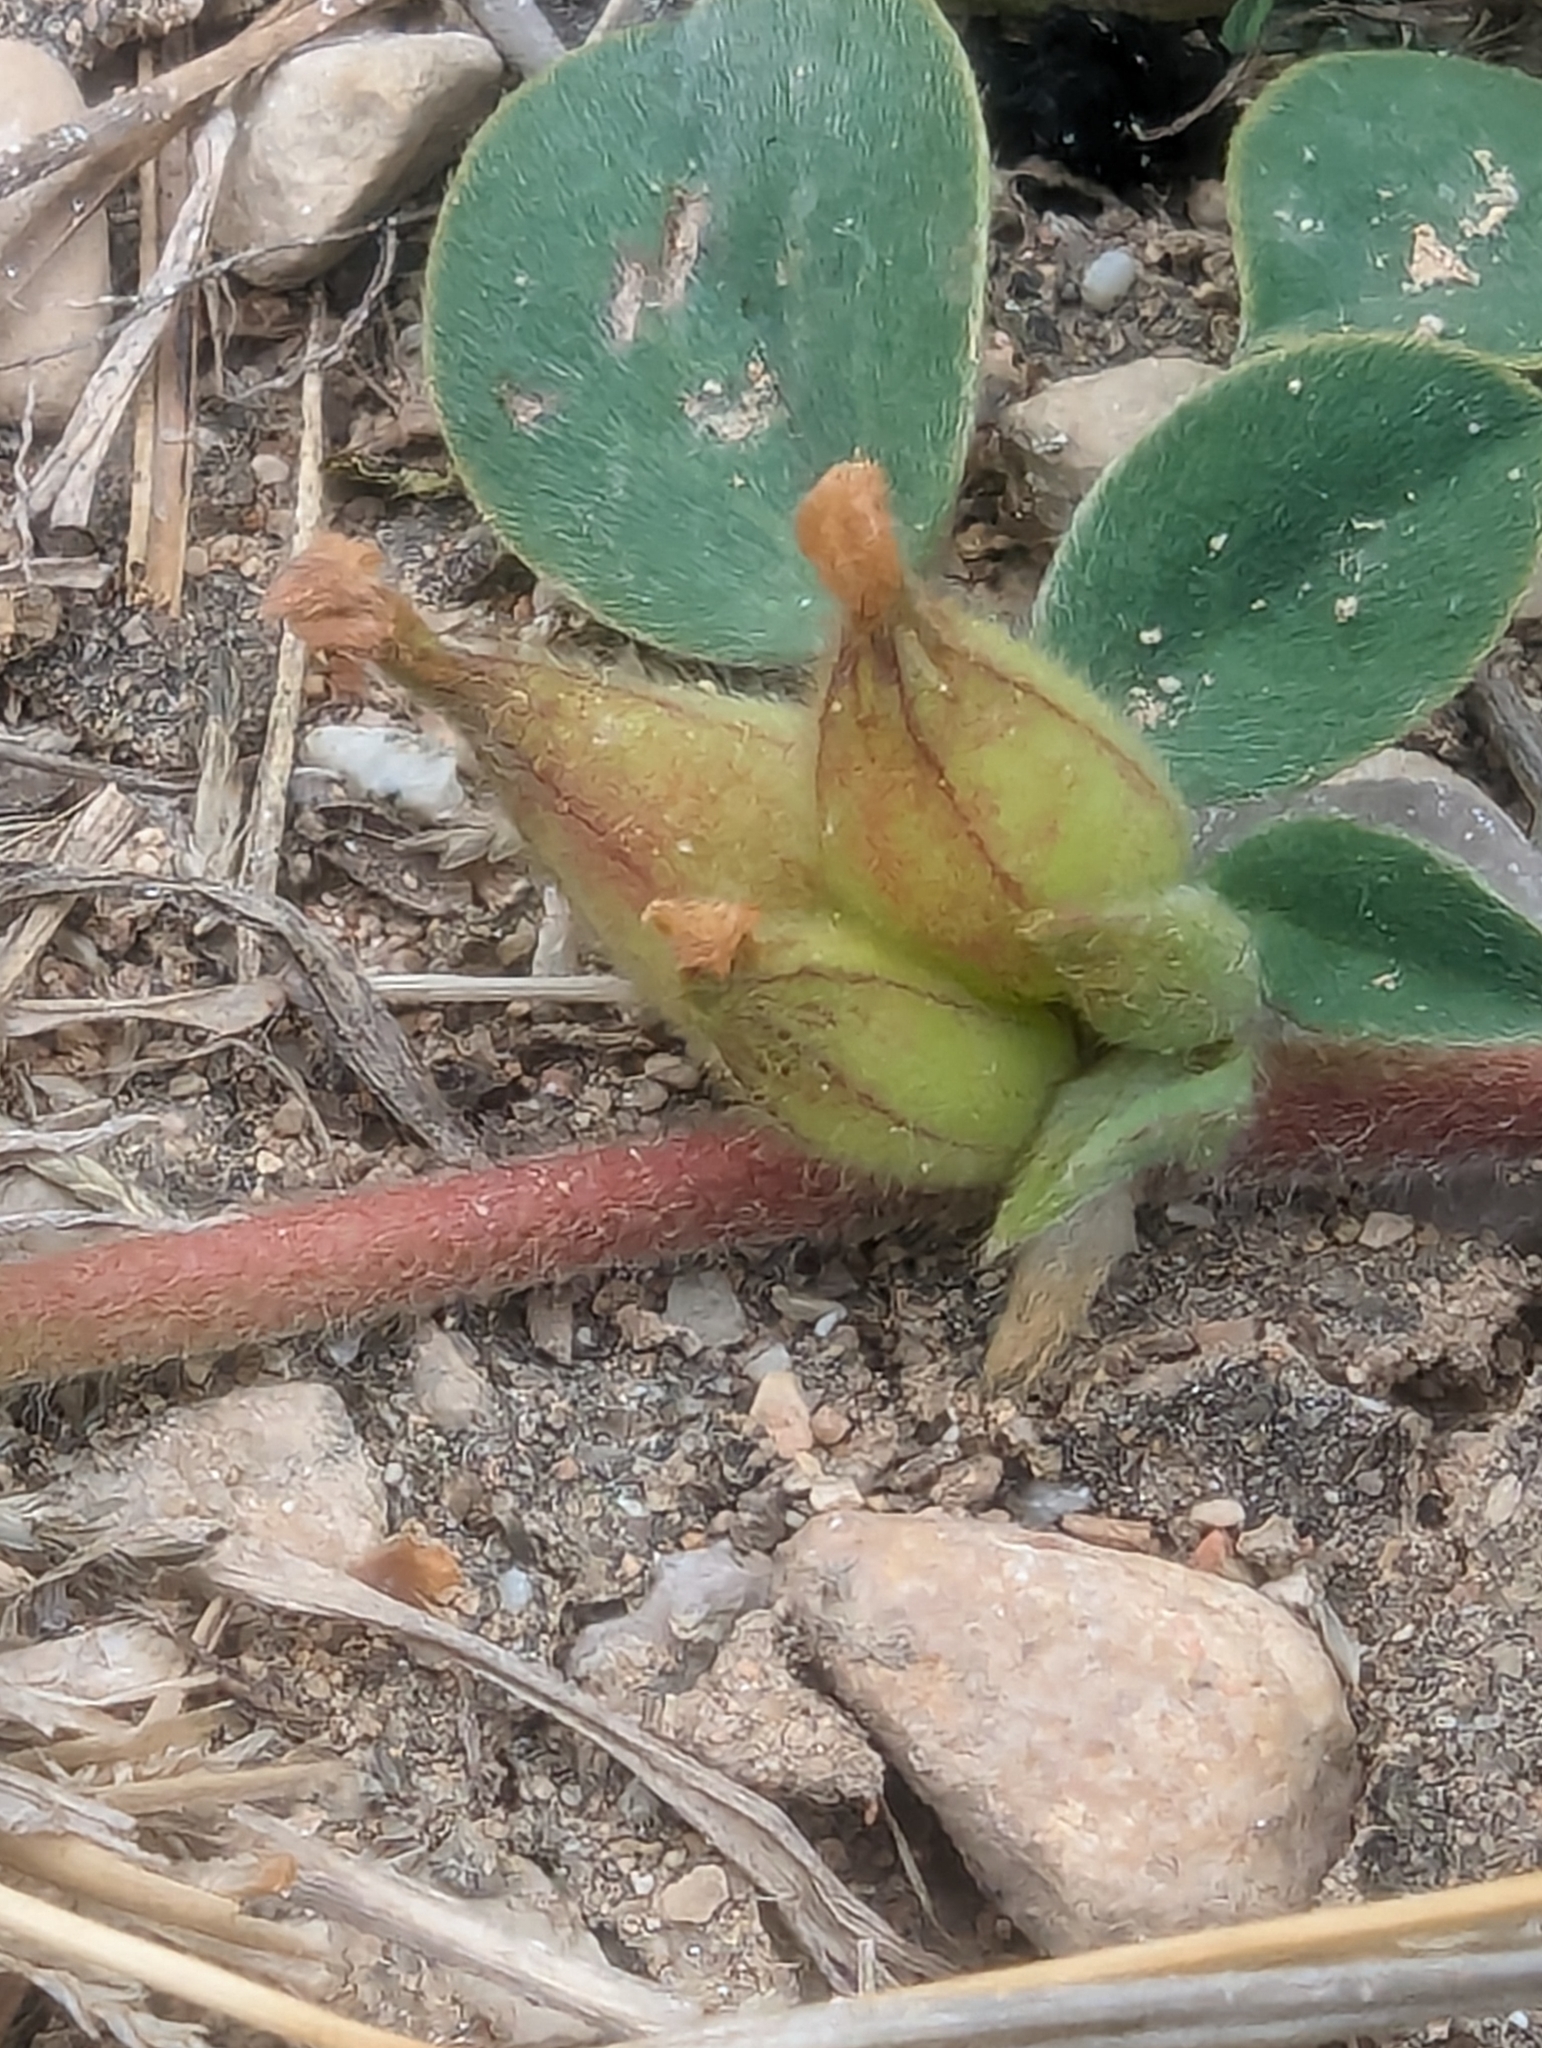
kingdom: Plantae
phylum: Tracheophyta
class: Magnoliopsida
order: Fabales
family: Fabaceae
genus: Tripodion
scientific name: Tripodion tetraphyllum
